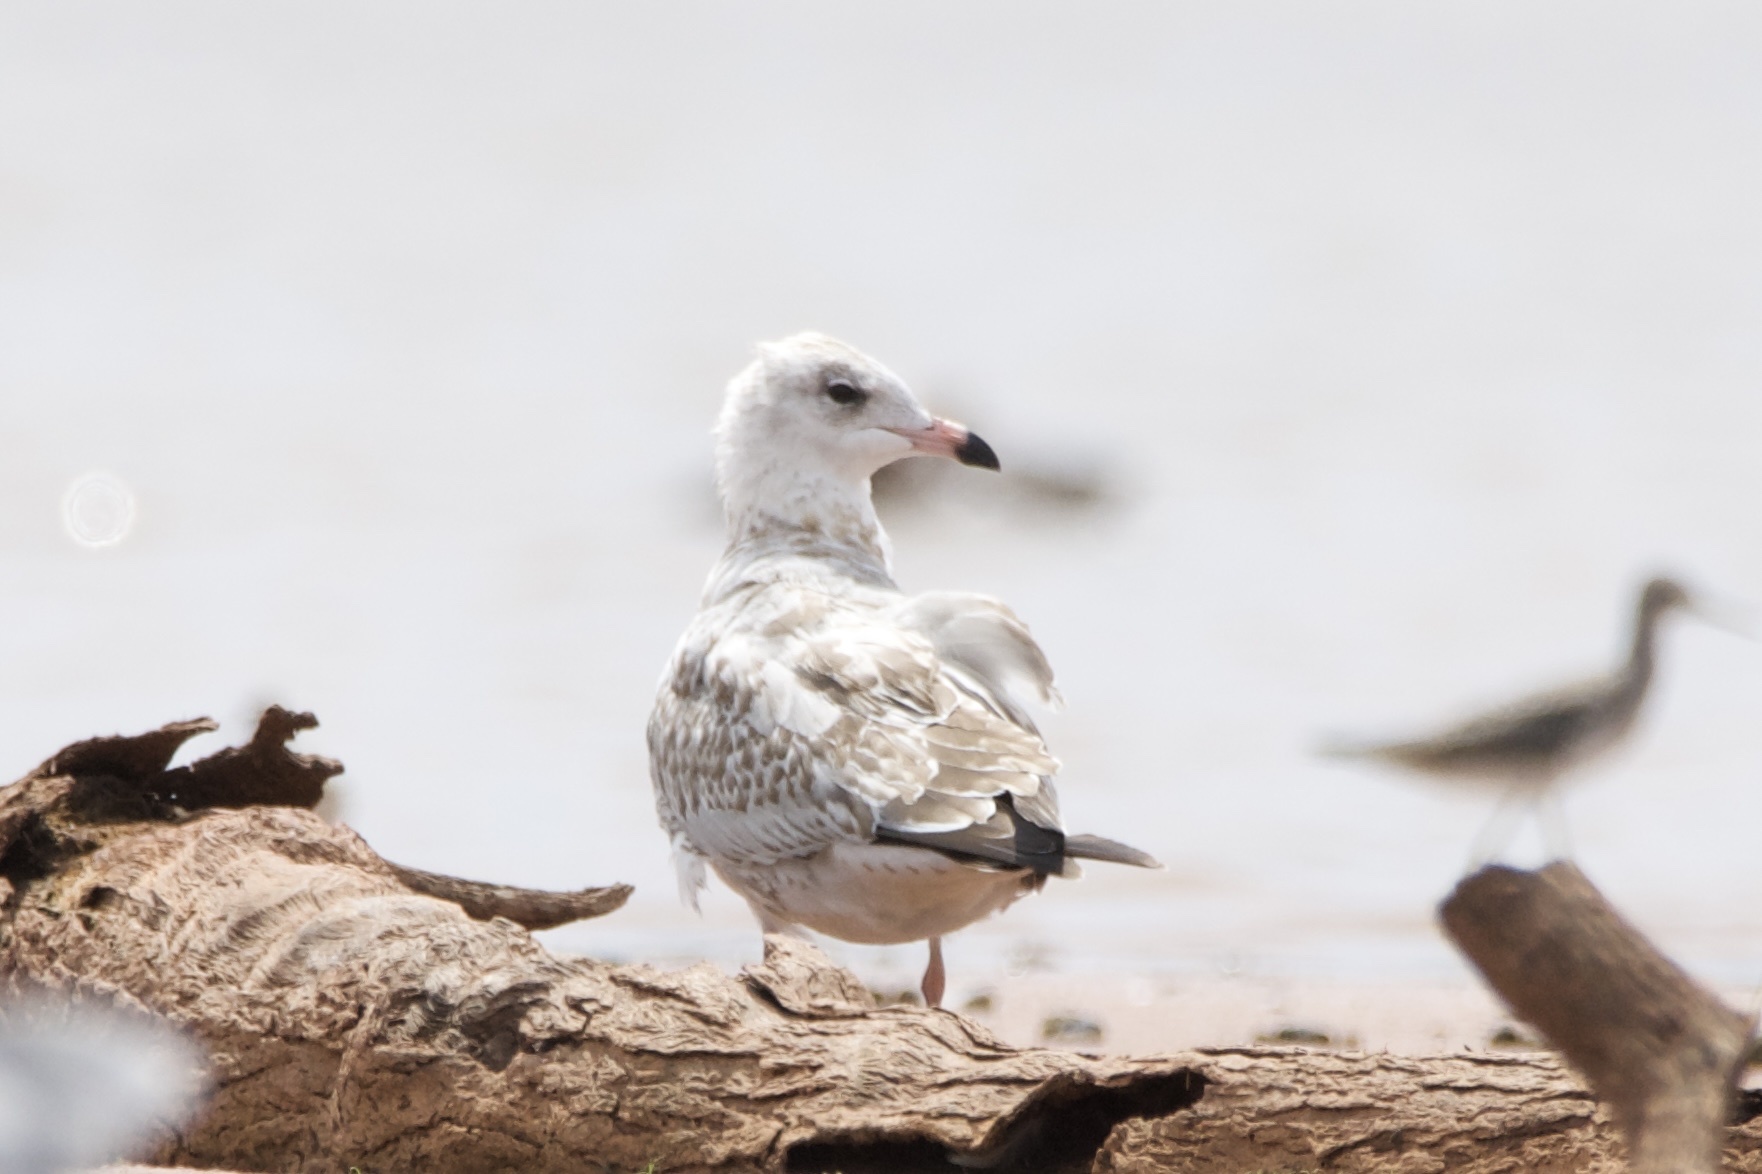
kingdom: Animalia
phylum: Chordata
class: Aves
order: Charadriiformes
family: Laridae
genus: Larus
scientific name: Larus delawarensis
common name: Ring-billed gull
